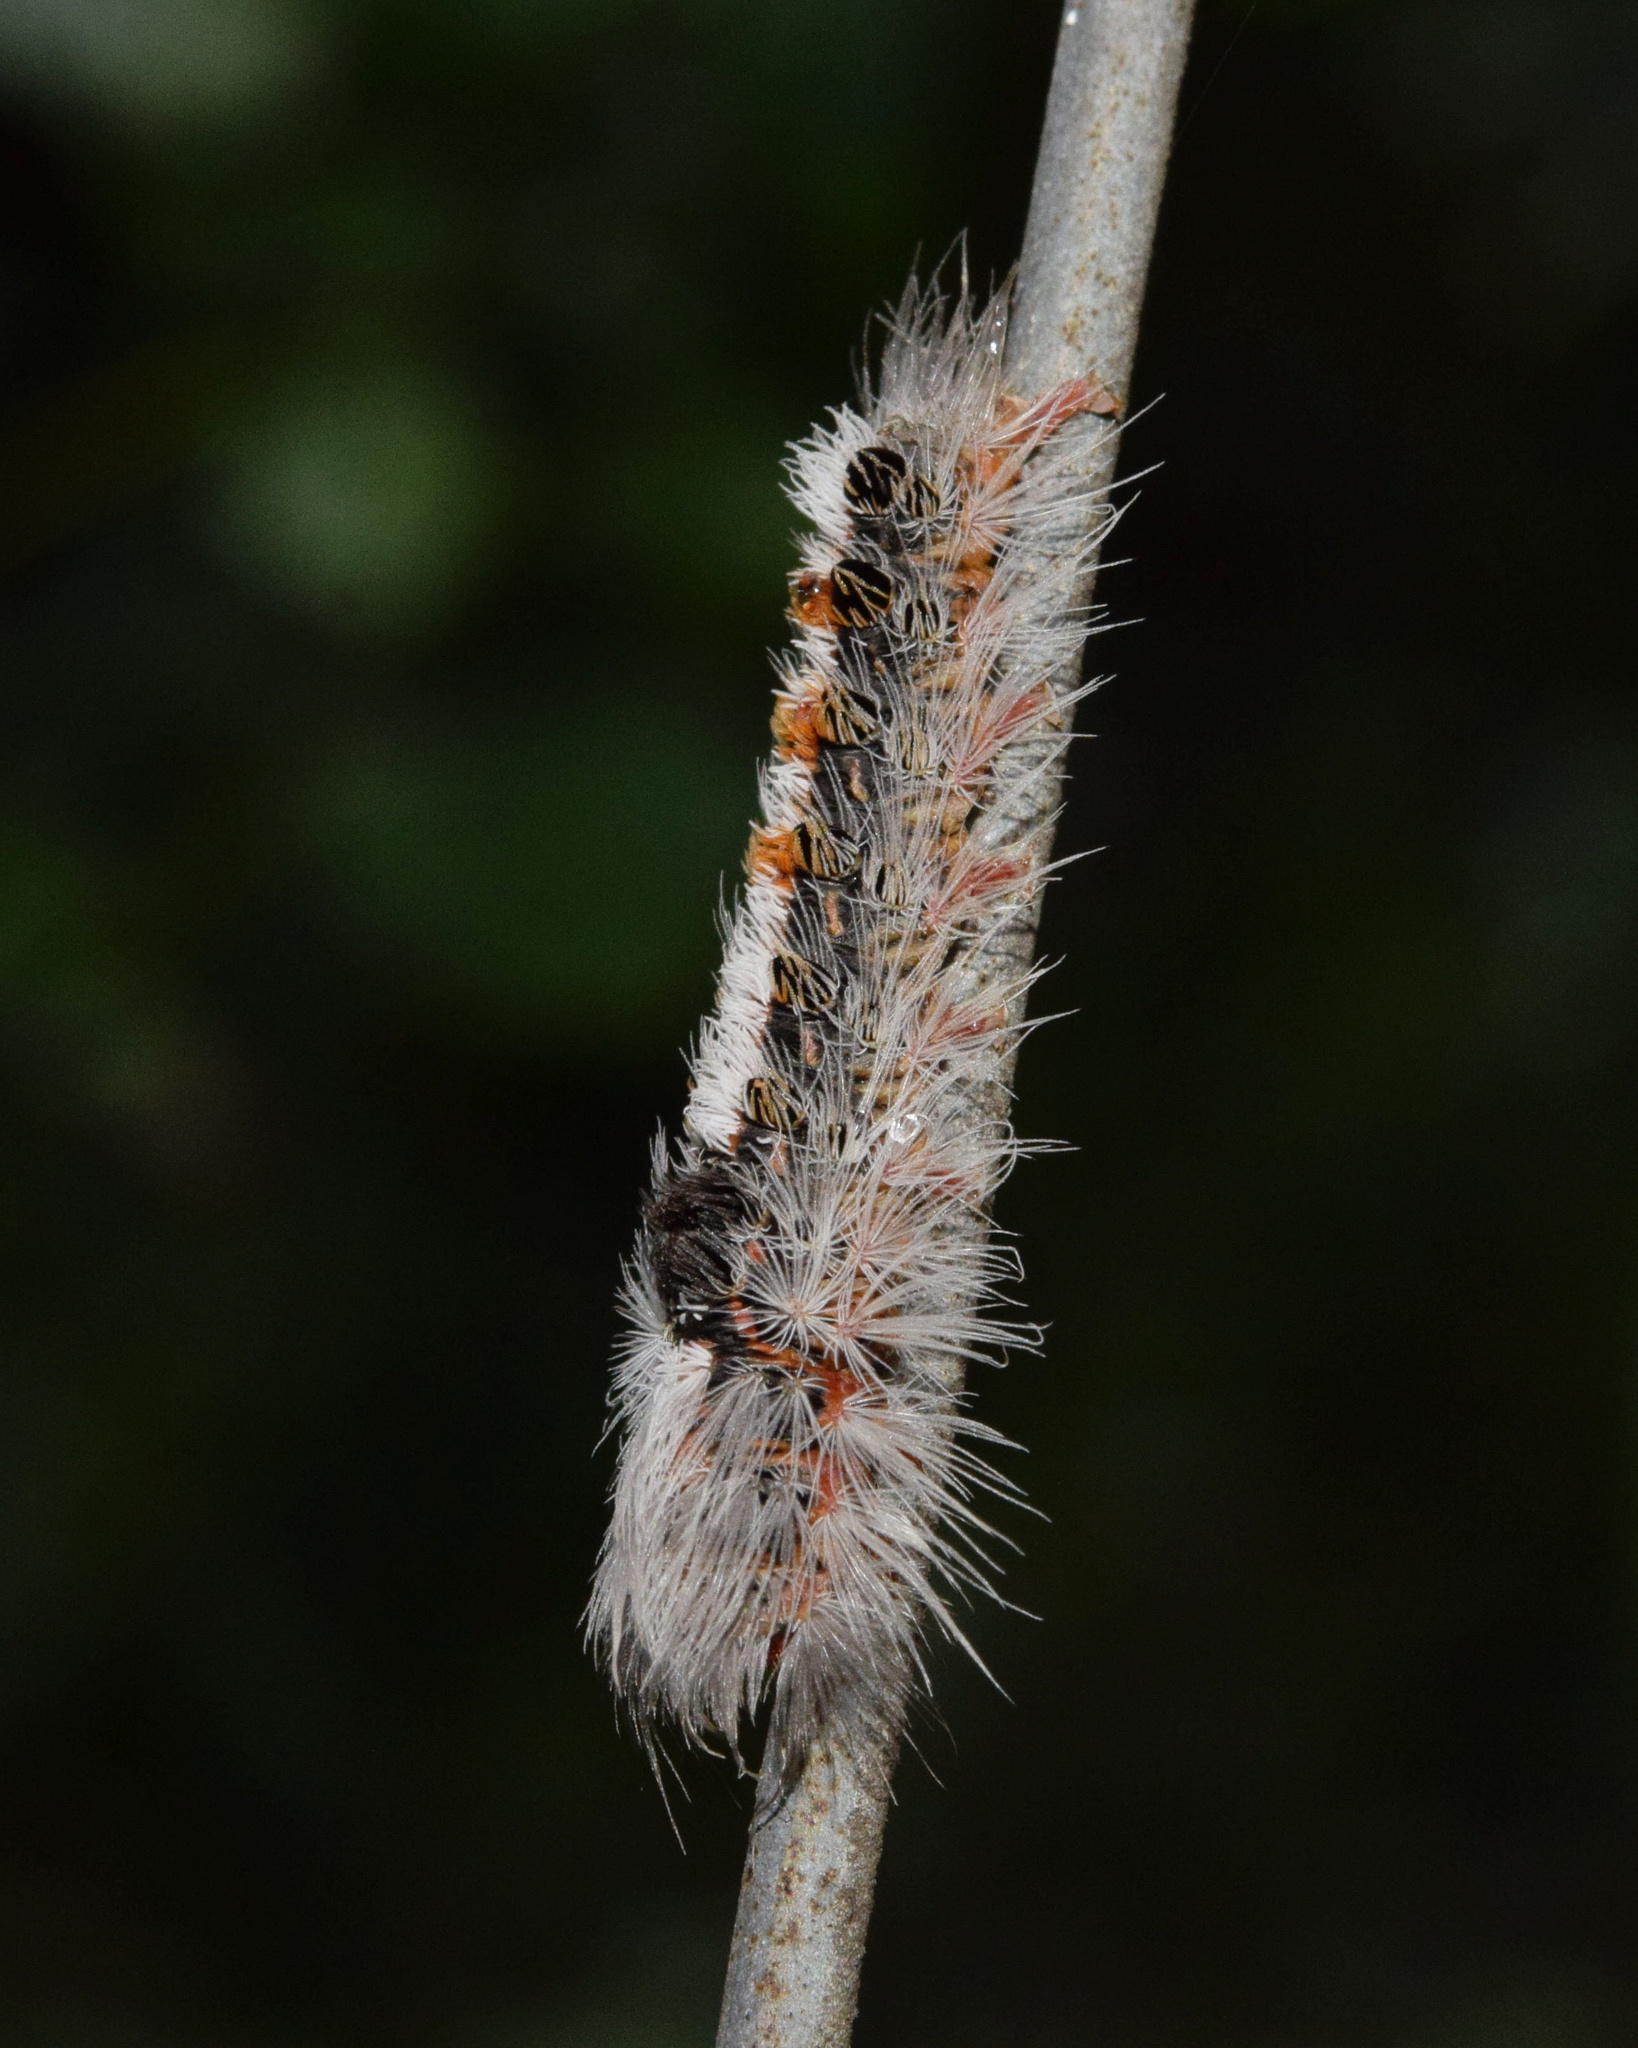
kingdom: Animalia
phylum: Arthropoda
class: Insecta
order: Lepidoptera
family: Erebidae
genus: Euproctis
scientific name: Euproctis punctifera
